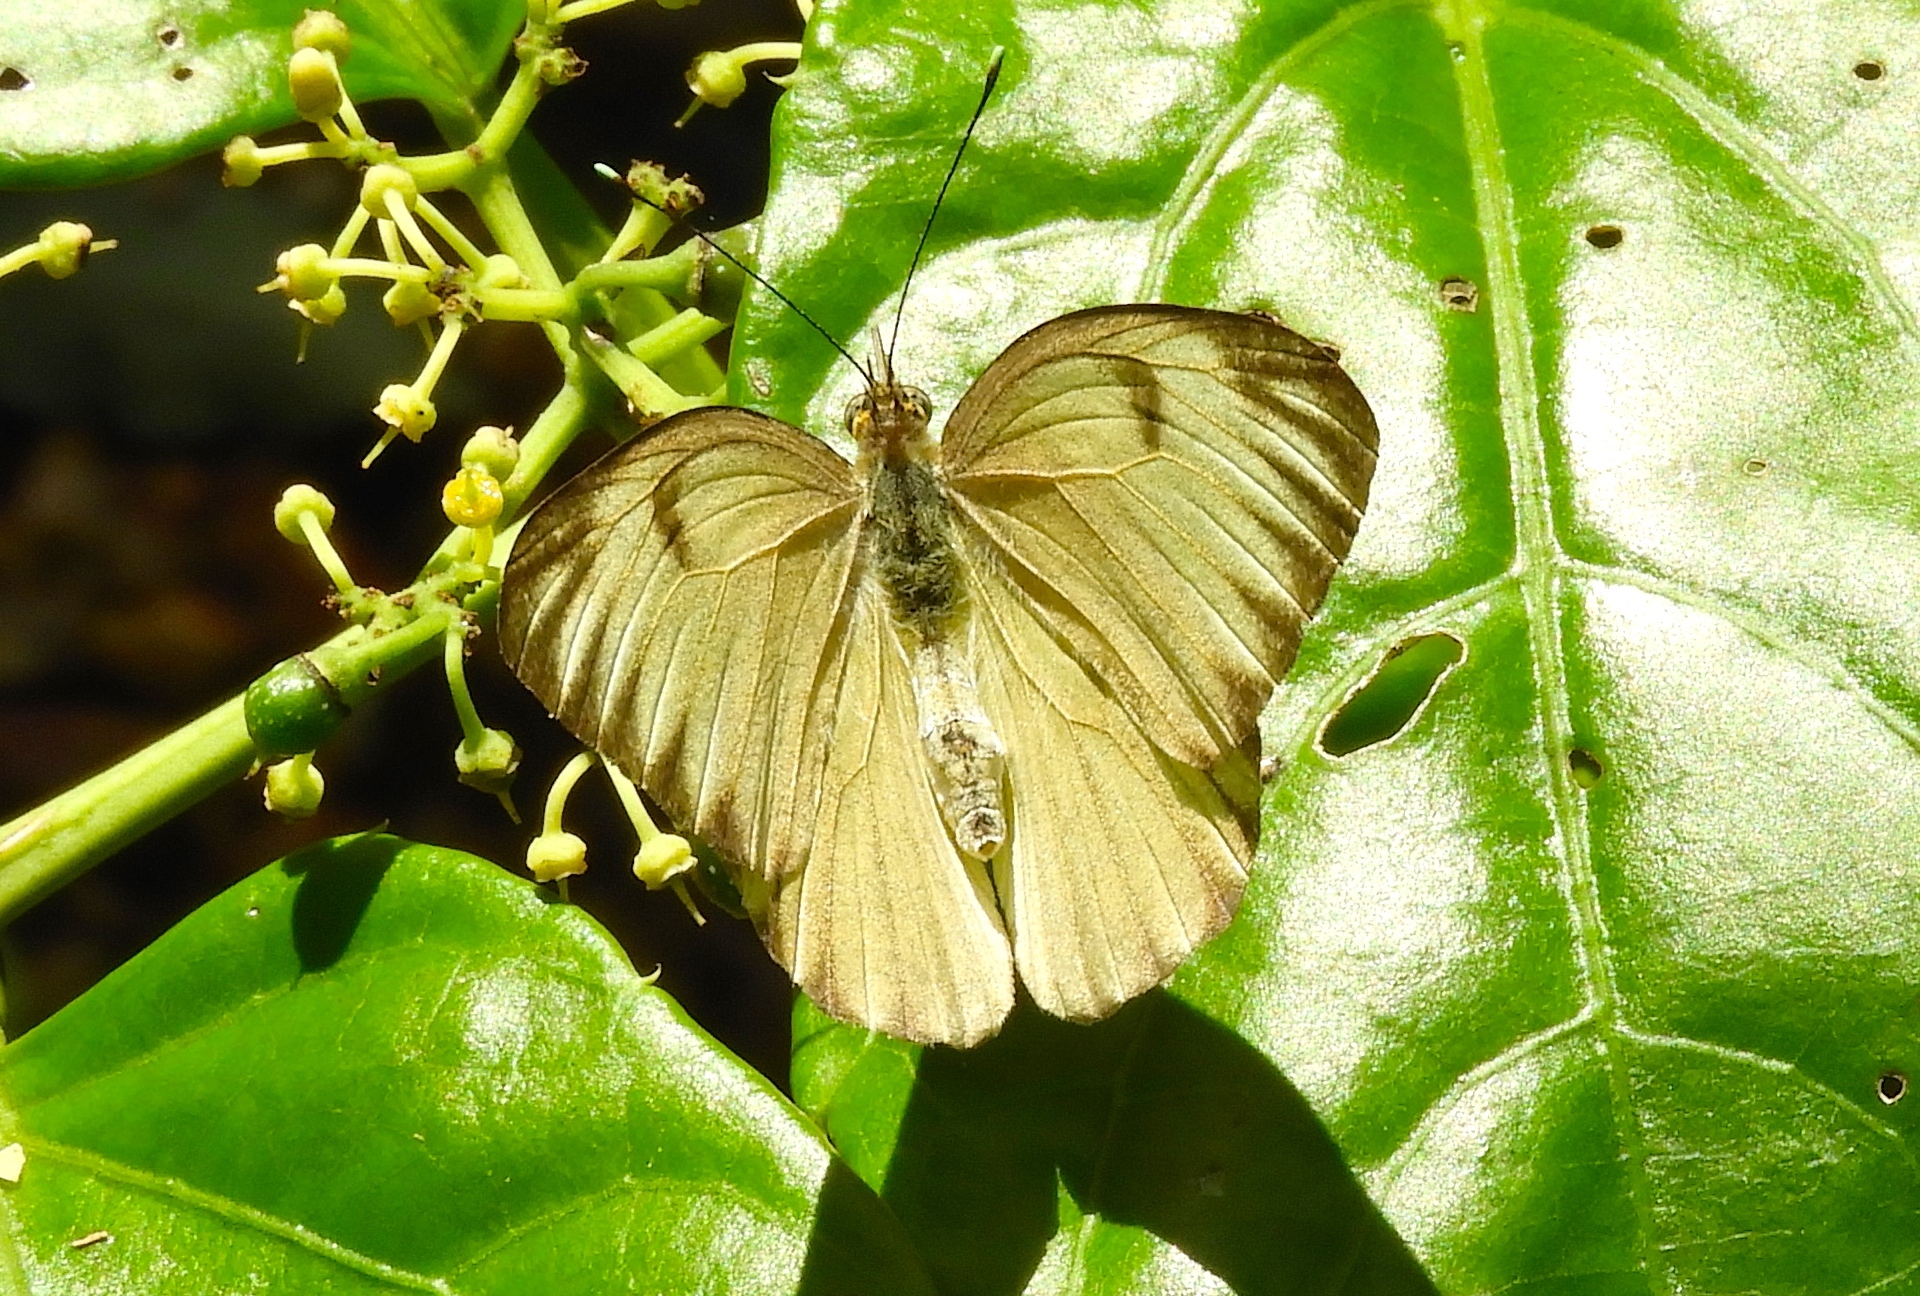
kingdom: Animalia
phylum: Arthropoda
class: Insecta
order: Lepidoptera
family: Pieridae
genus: Ascia
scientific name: Ascia monuste
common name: Great southern white
